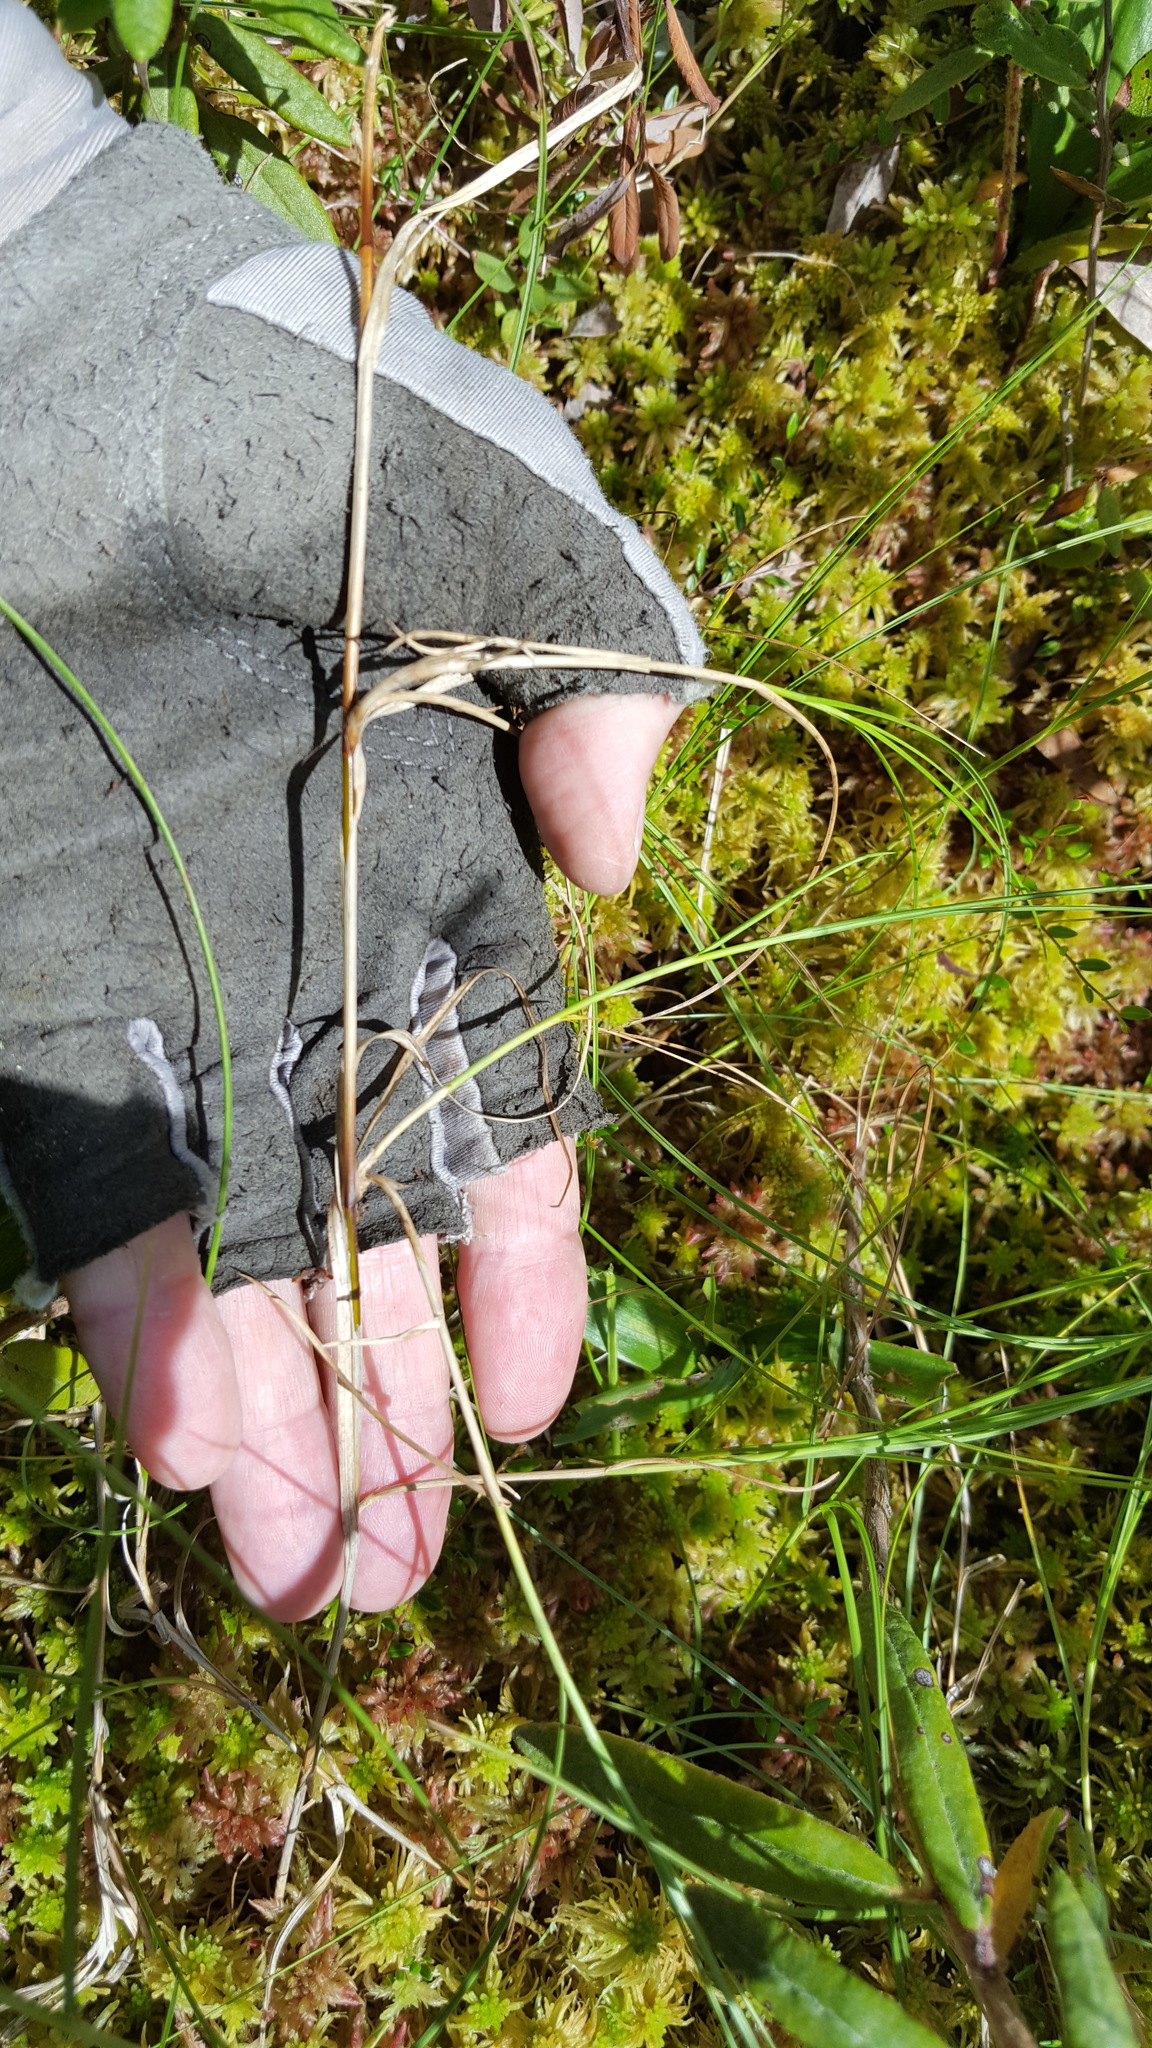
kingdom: Plantae
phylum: Tracheophyta
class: Liliopsida
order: Poales
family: Cyperaceae
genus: Carex
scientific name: Carex chordorrhiza
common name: String sedge
